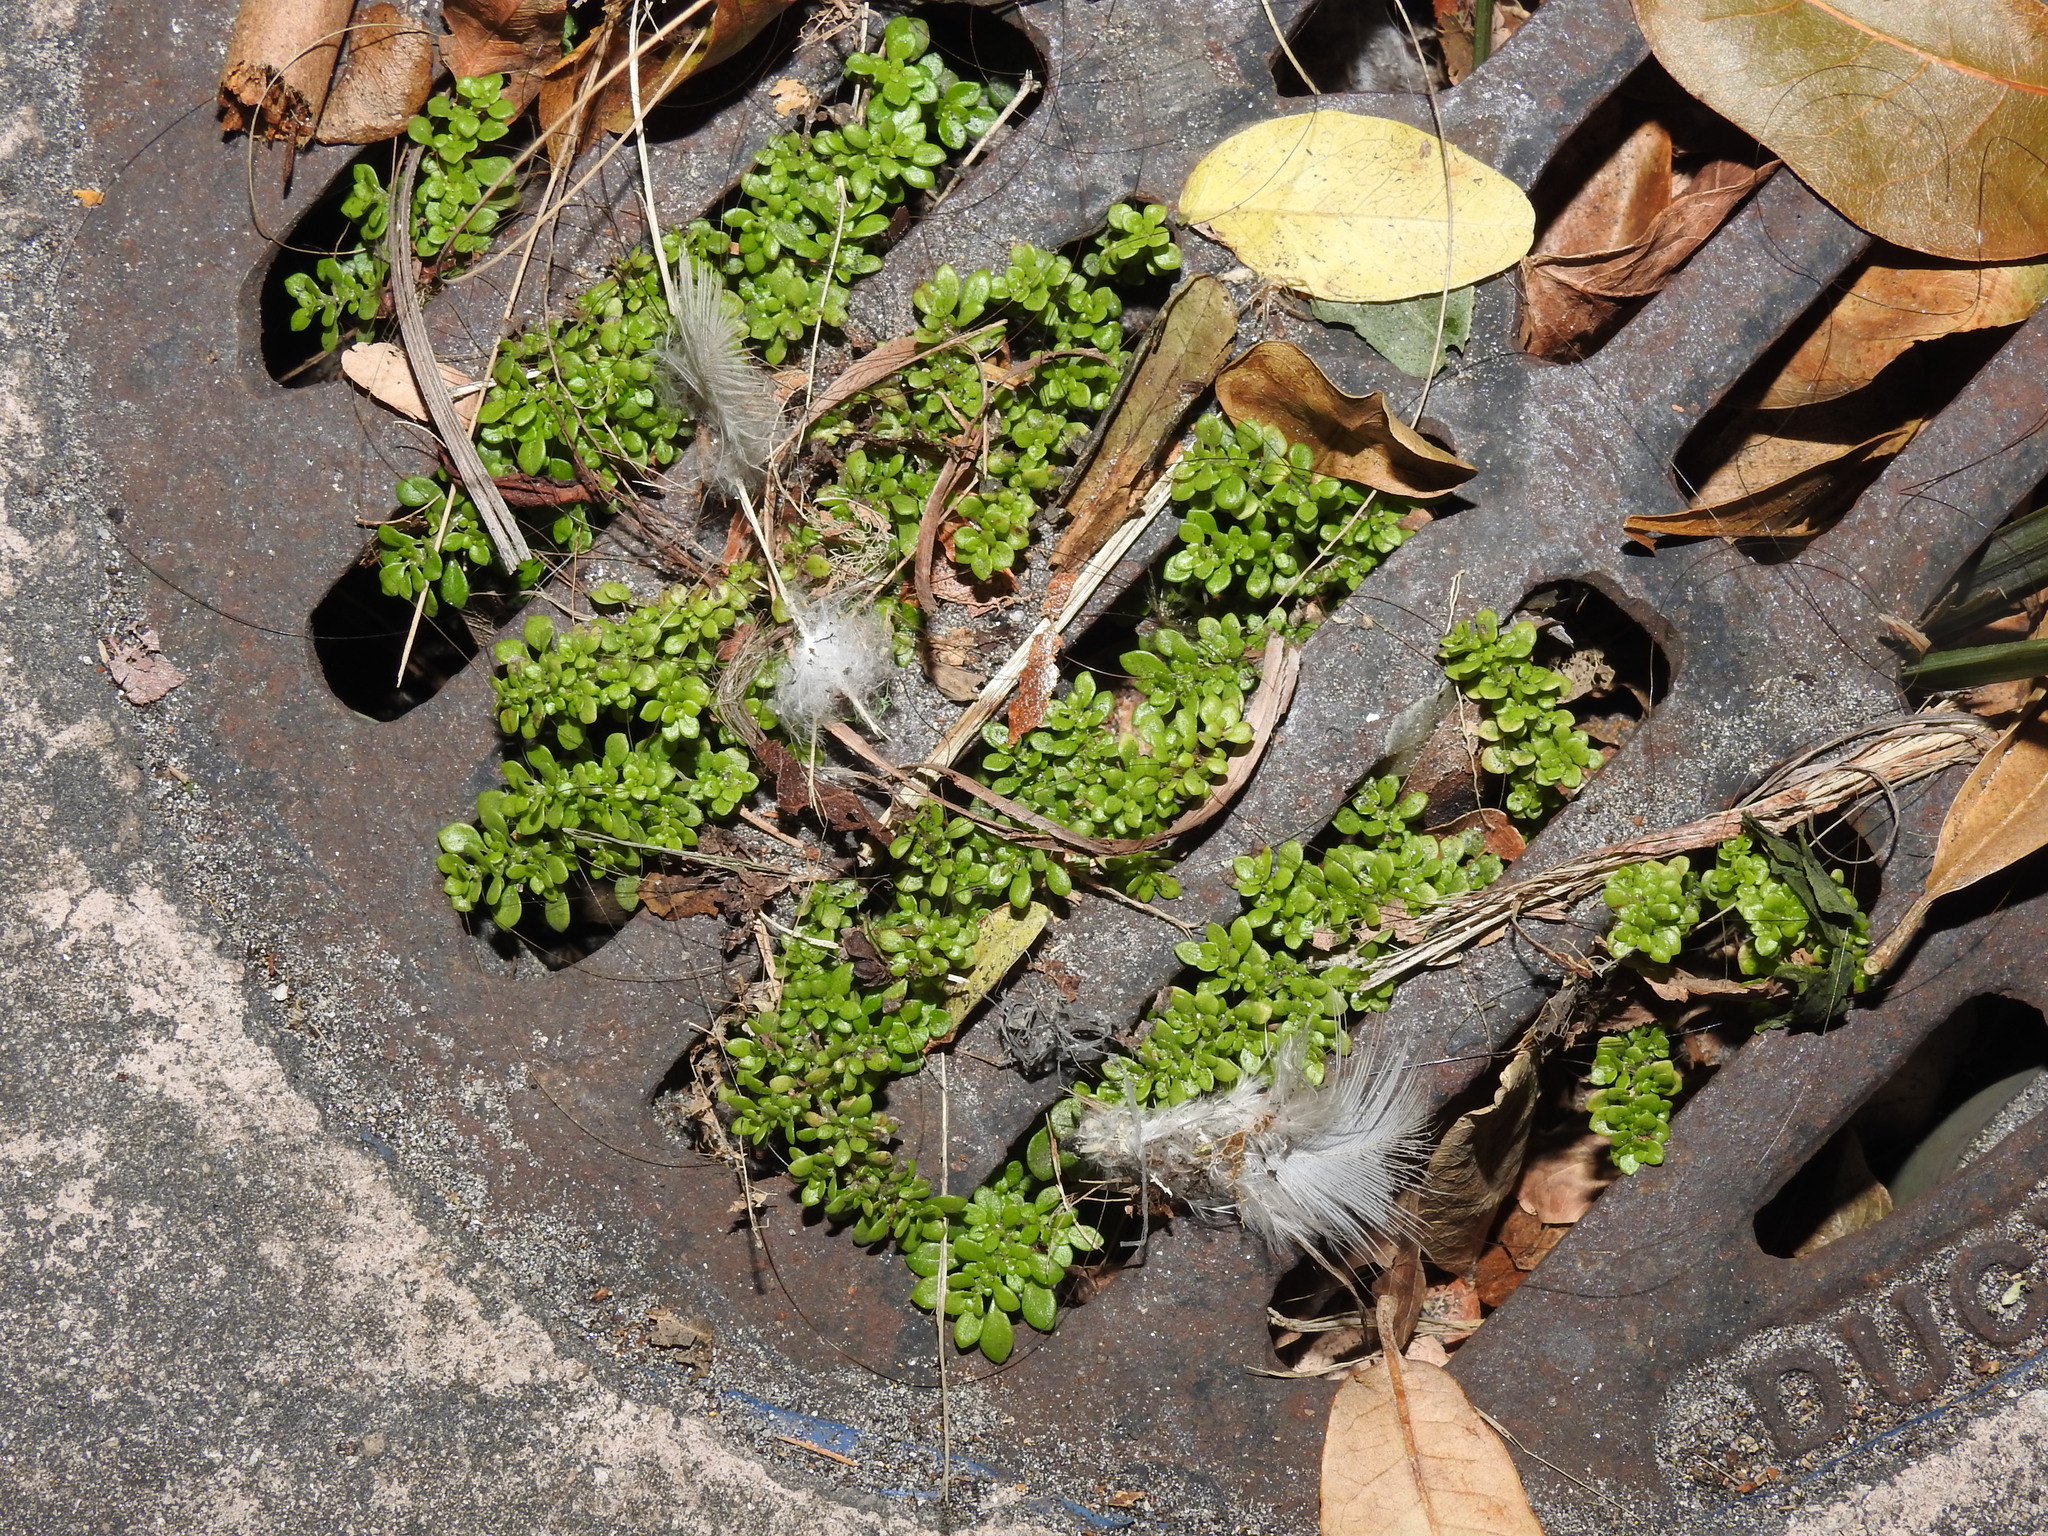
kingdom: Plantae
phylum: Tracheophyta
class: Magnoliopsida
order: Rosales
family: Urticaceae
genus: Pilea
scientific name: Pilea microphylla
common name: Artillery-plant
